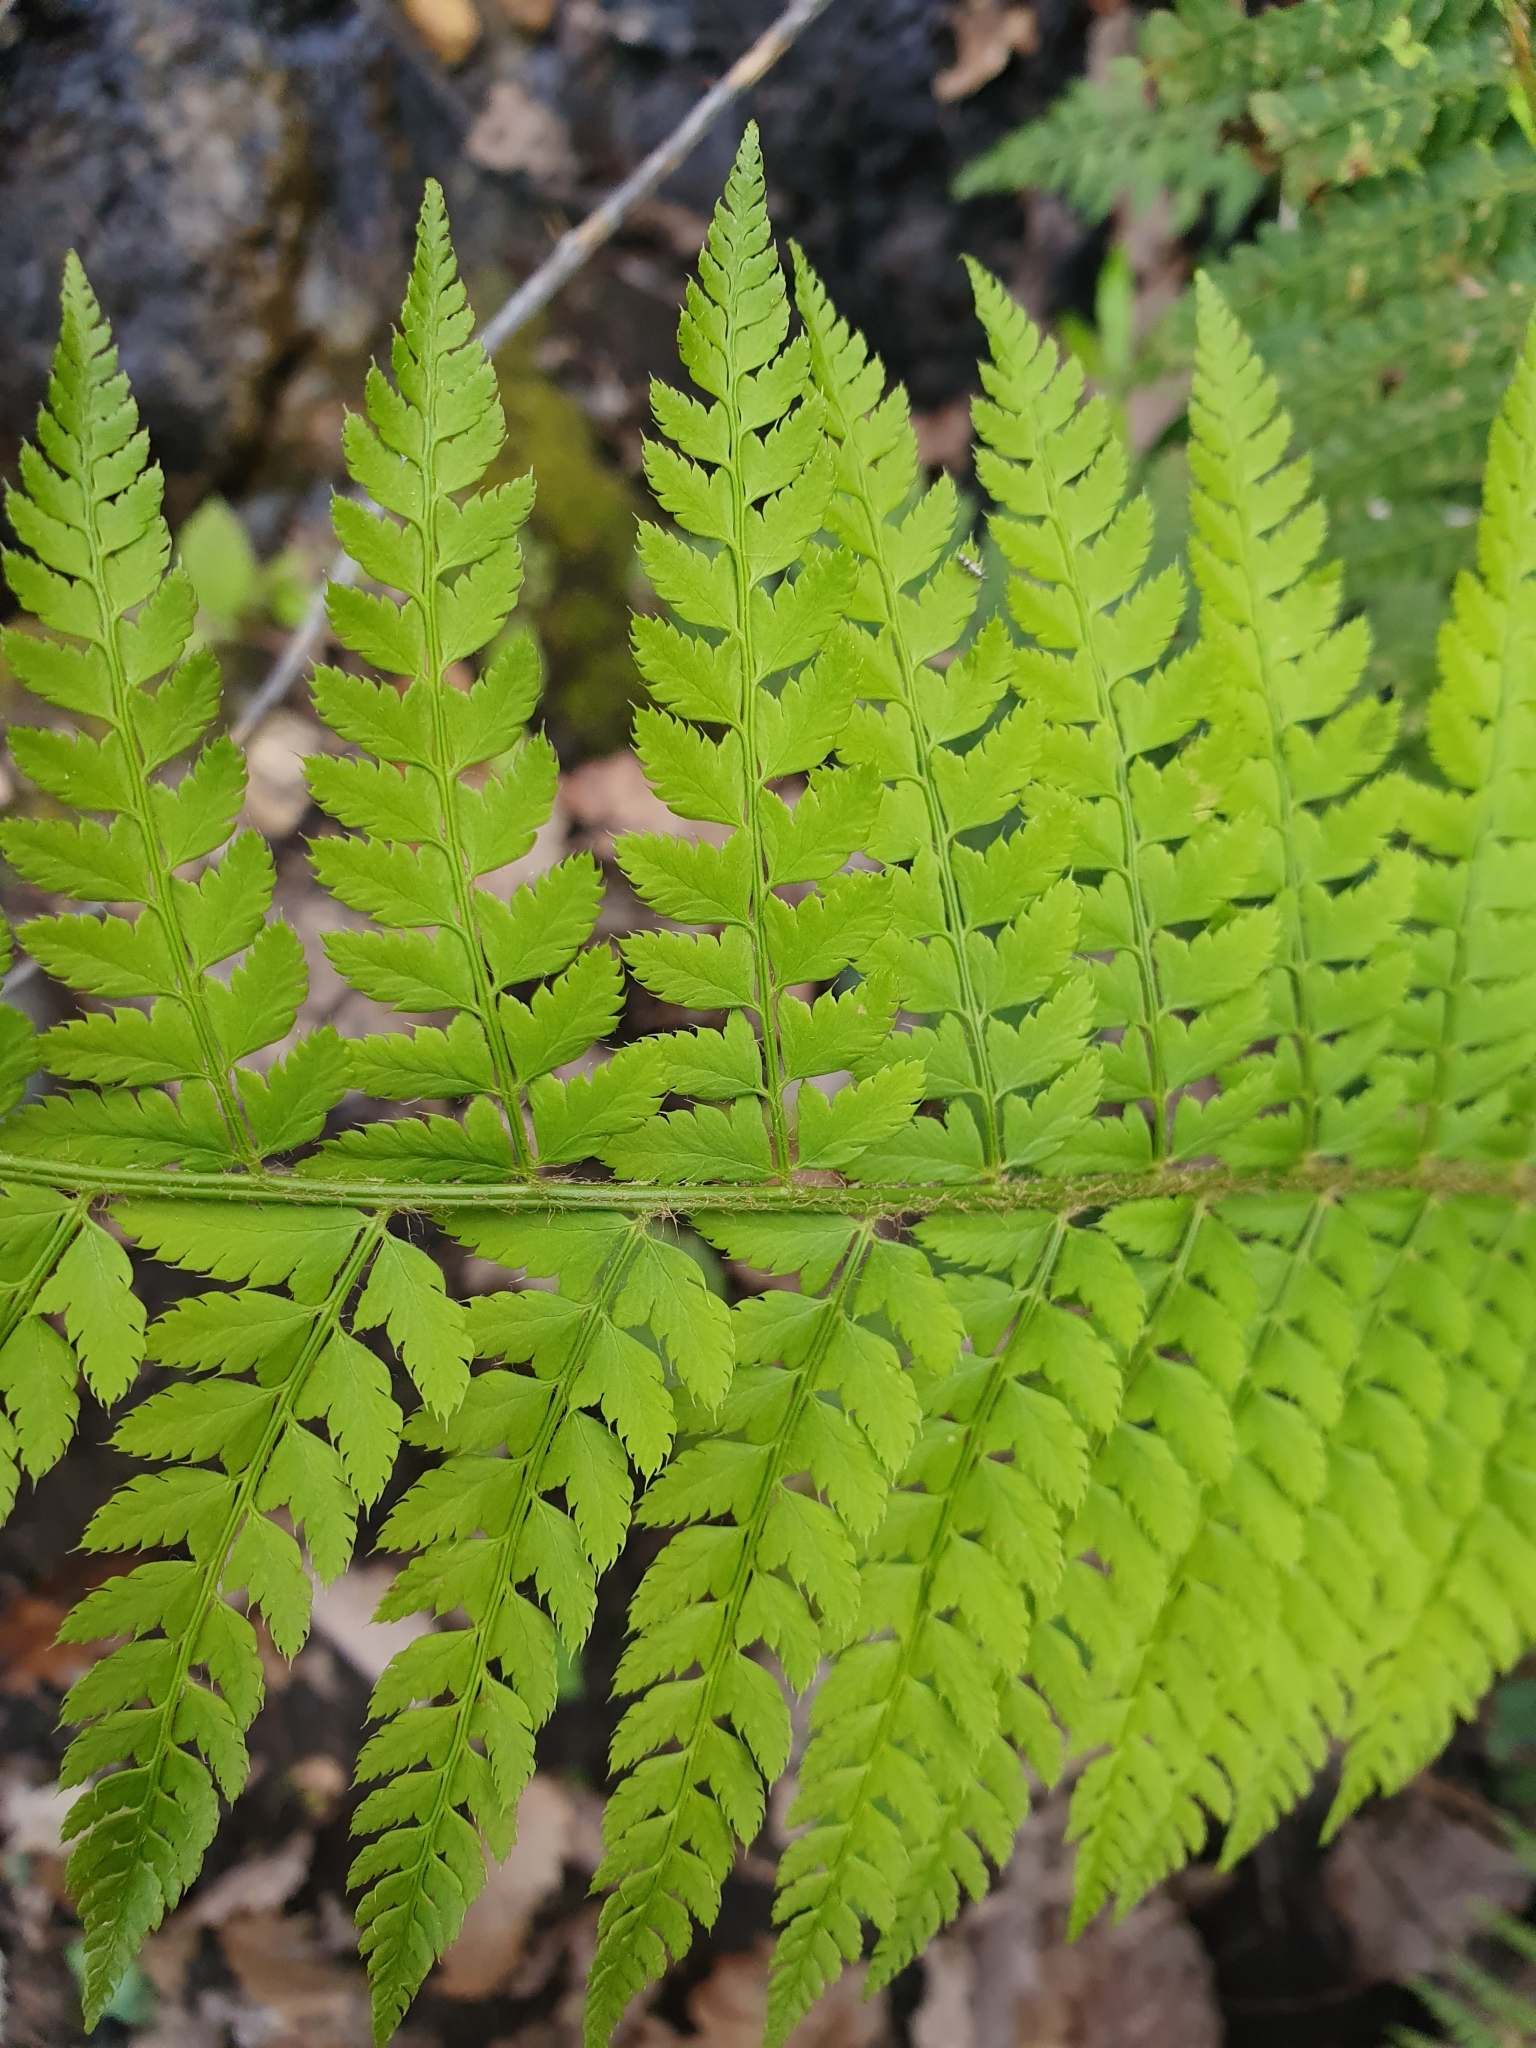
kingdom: Plantae
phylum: Tracheophyta
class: Polypodiopsida
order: Polypodiales
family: Dryopteridaceae
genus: Polystichum
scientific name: Polystichum setiferum
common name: Soft shield-fern
